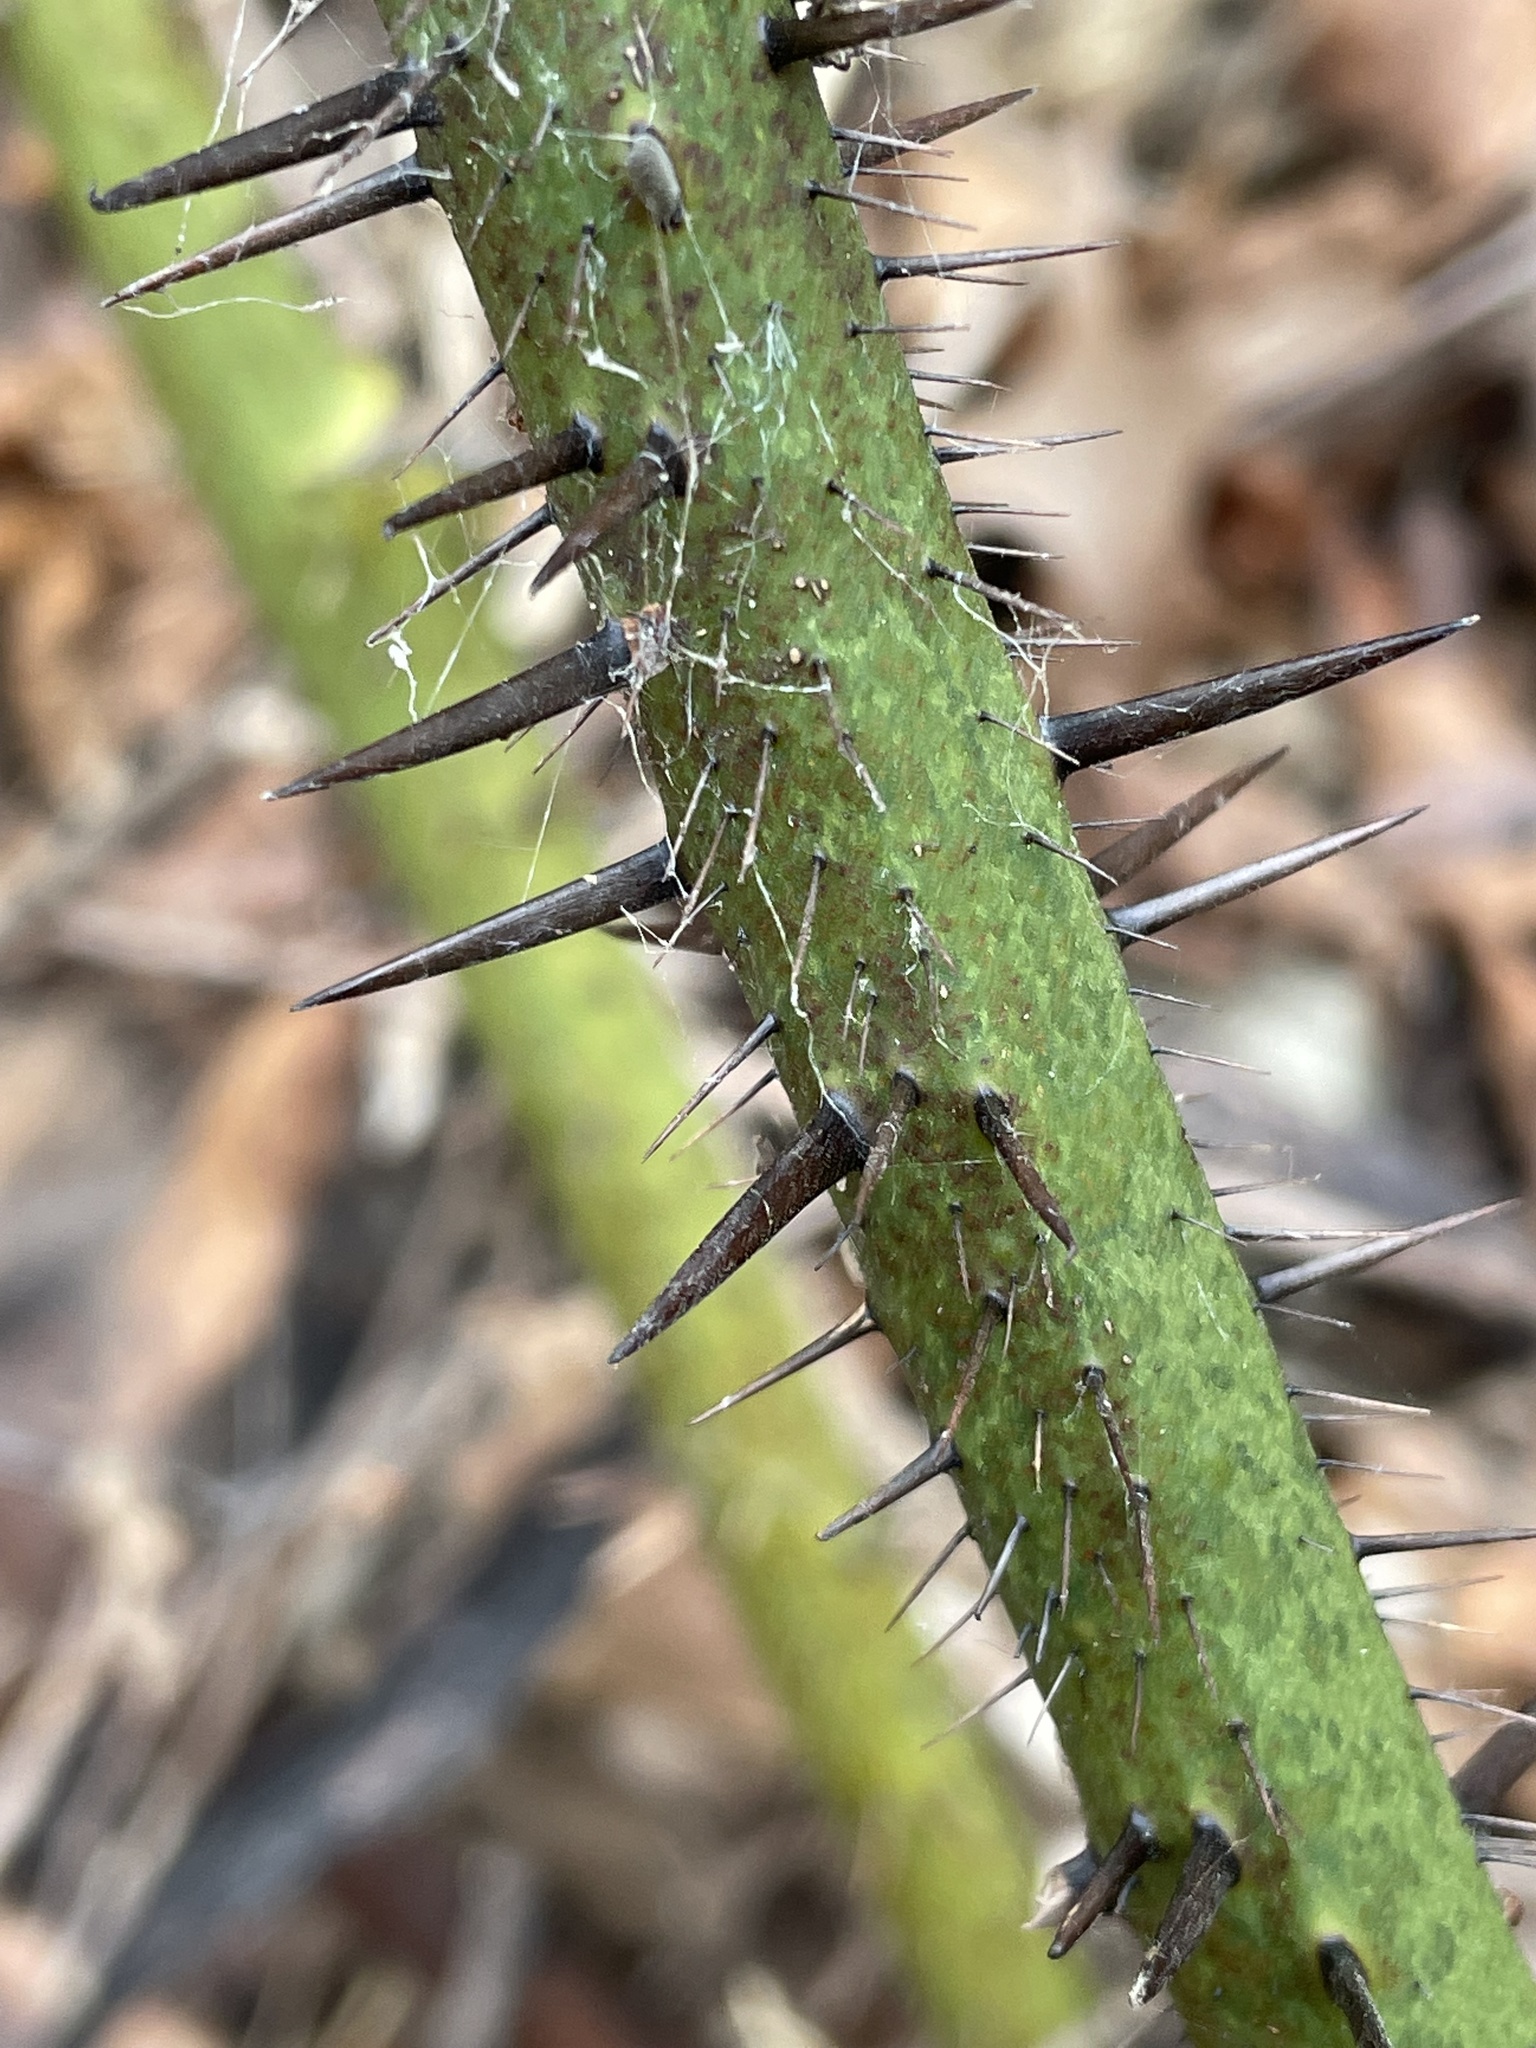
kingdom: Plantae
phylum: Tracheophyta
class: Liliopsida
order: Liliales
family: Smilacaceae
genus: Smilax
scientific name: Smilax tamnoides
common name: Hellfetter
